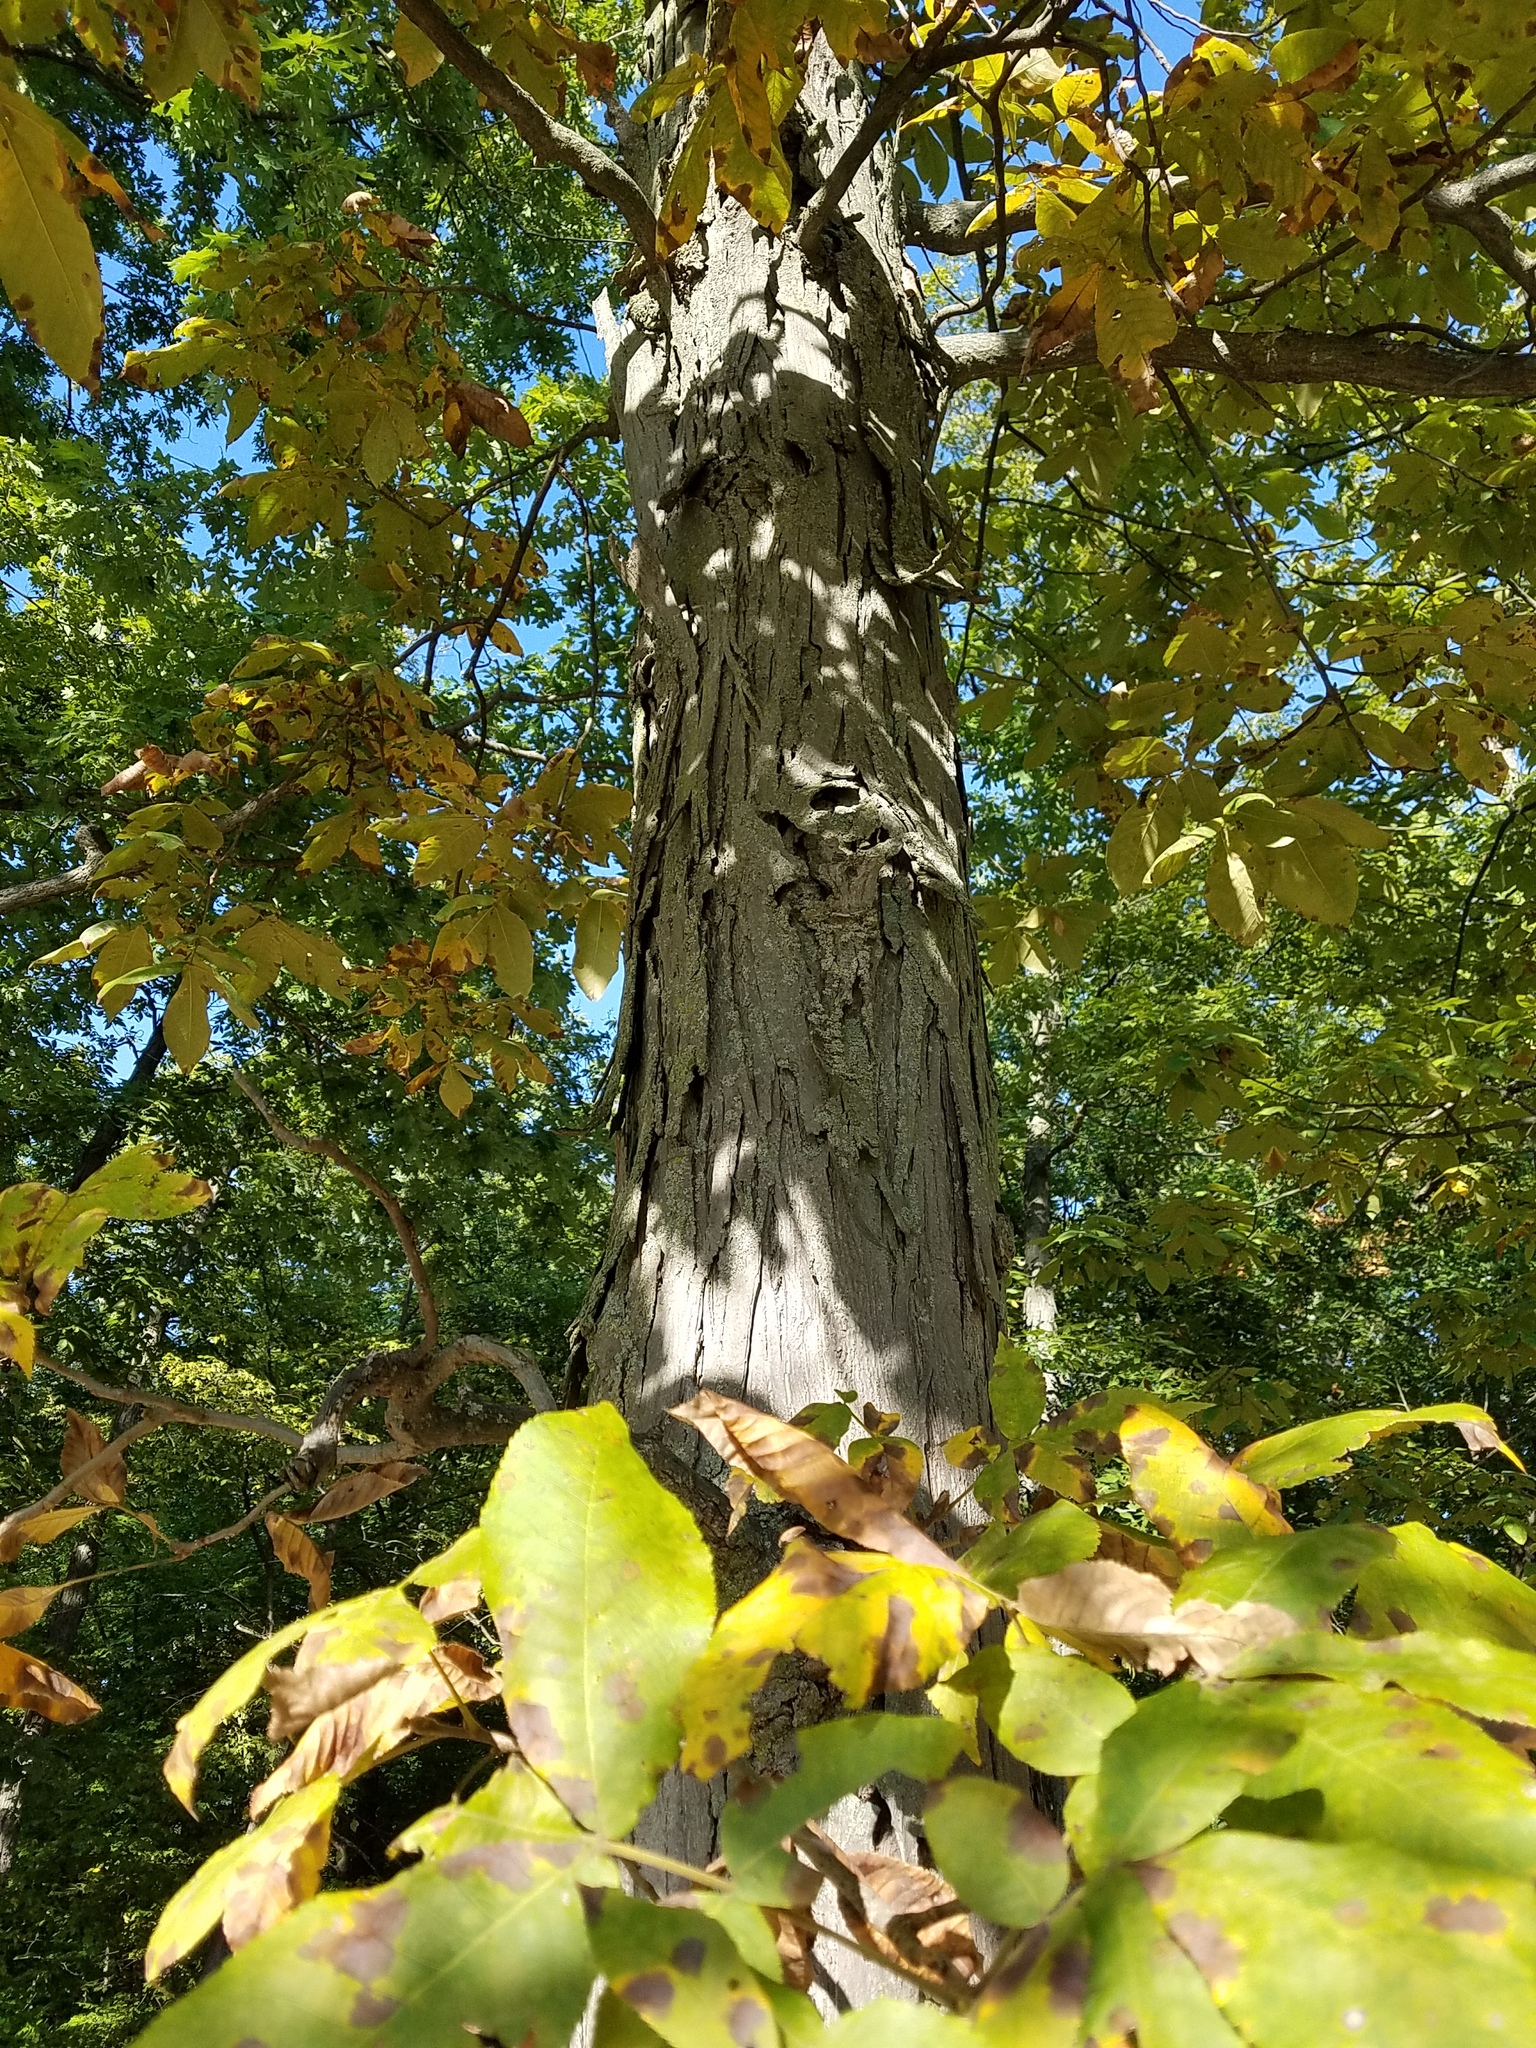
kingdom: Plantae
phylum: Tracheophyta
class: Magnoliopsida
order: Fagales
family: Juglandaceae
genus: Carya
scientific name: Carya ovata
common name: Shagbark hickory
